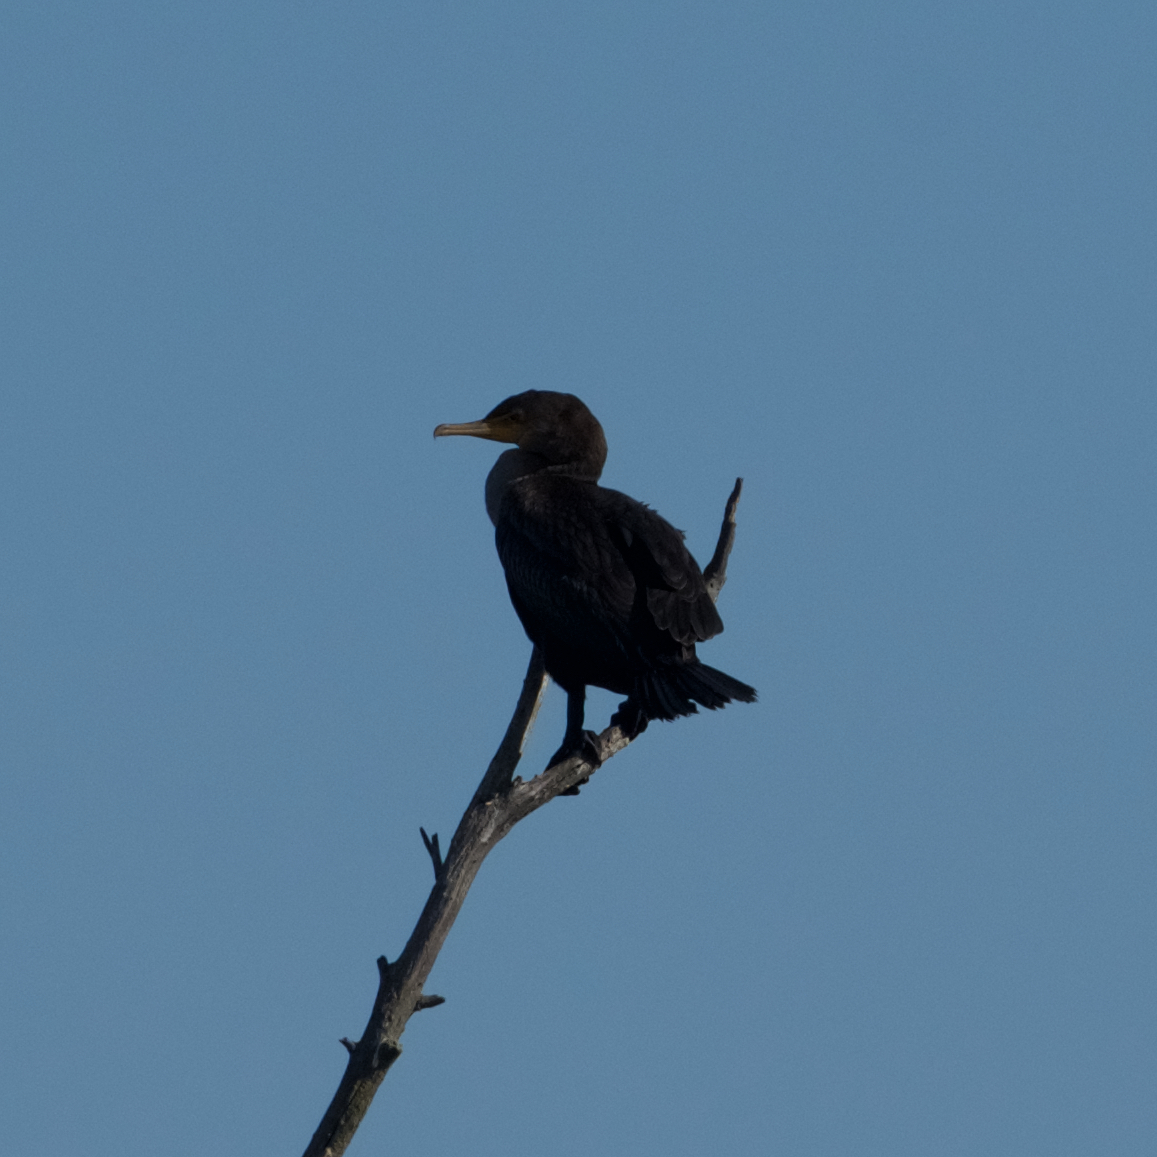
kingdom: Animalia
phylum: Chordata
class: Aves
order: Suliformes
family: Phalacrocoracidae
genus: Phalacrocorax
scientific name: Phalacrocorax auritus
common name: Double-crested cormorant
